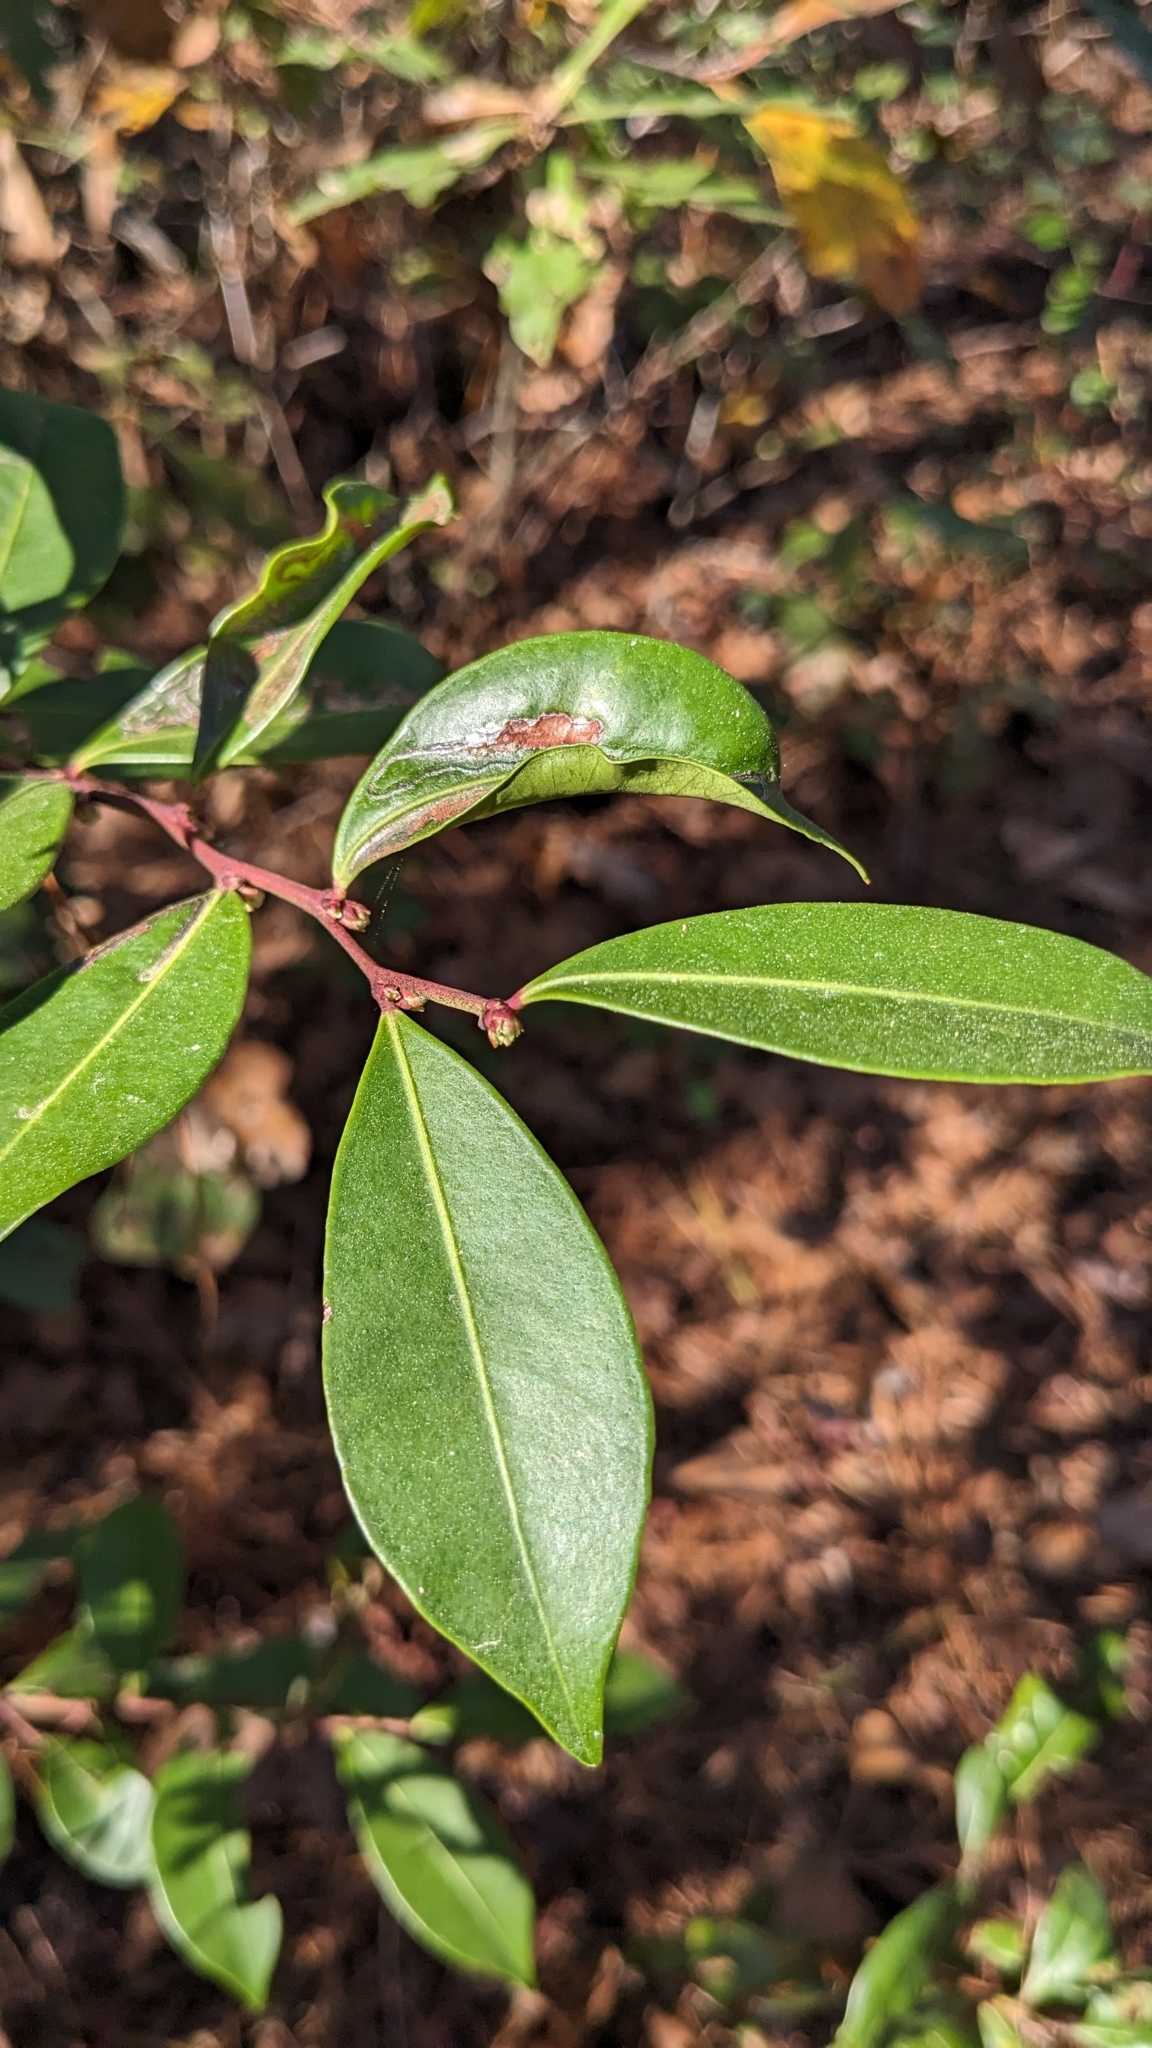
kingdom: Plantae
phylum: Tracheophyta
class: Magnoliopsida
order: Ericales
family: Ericaceae
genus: Lyonia
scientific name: Lyonia lucida
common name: Fetterbush
